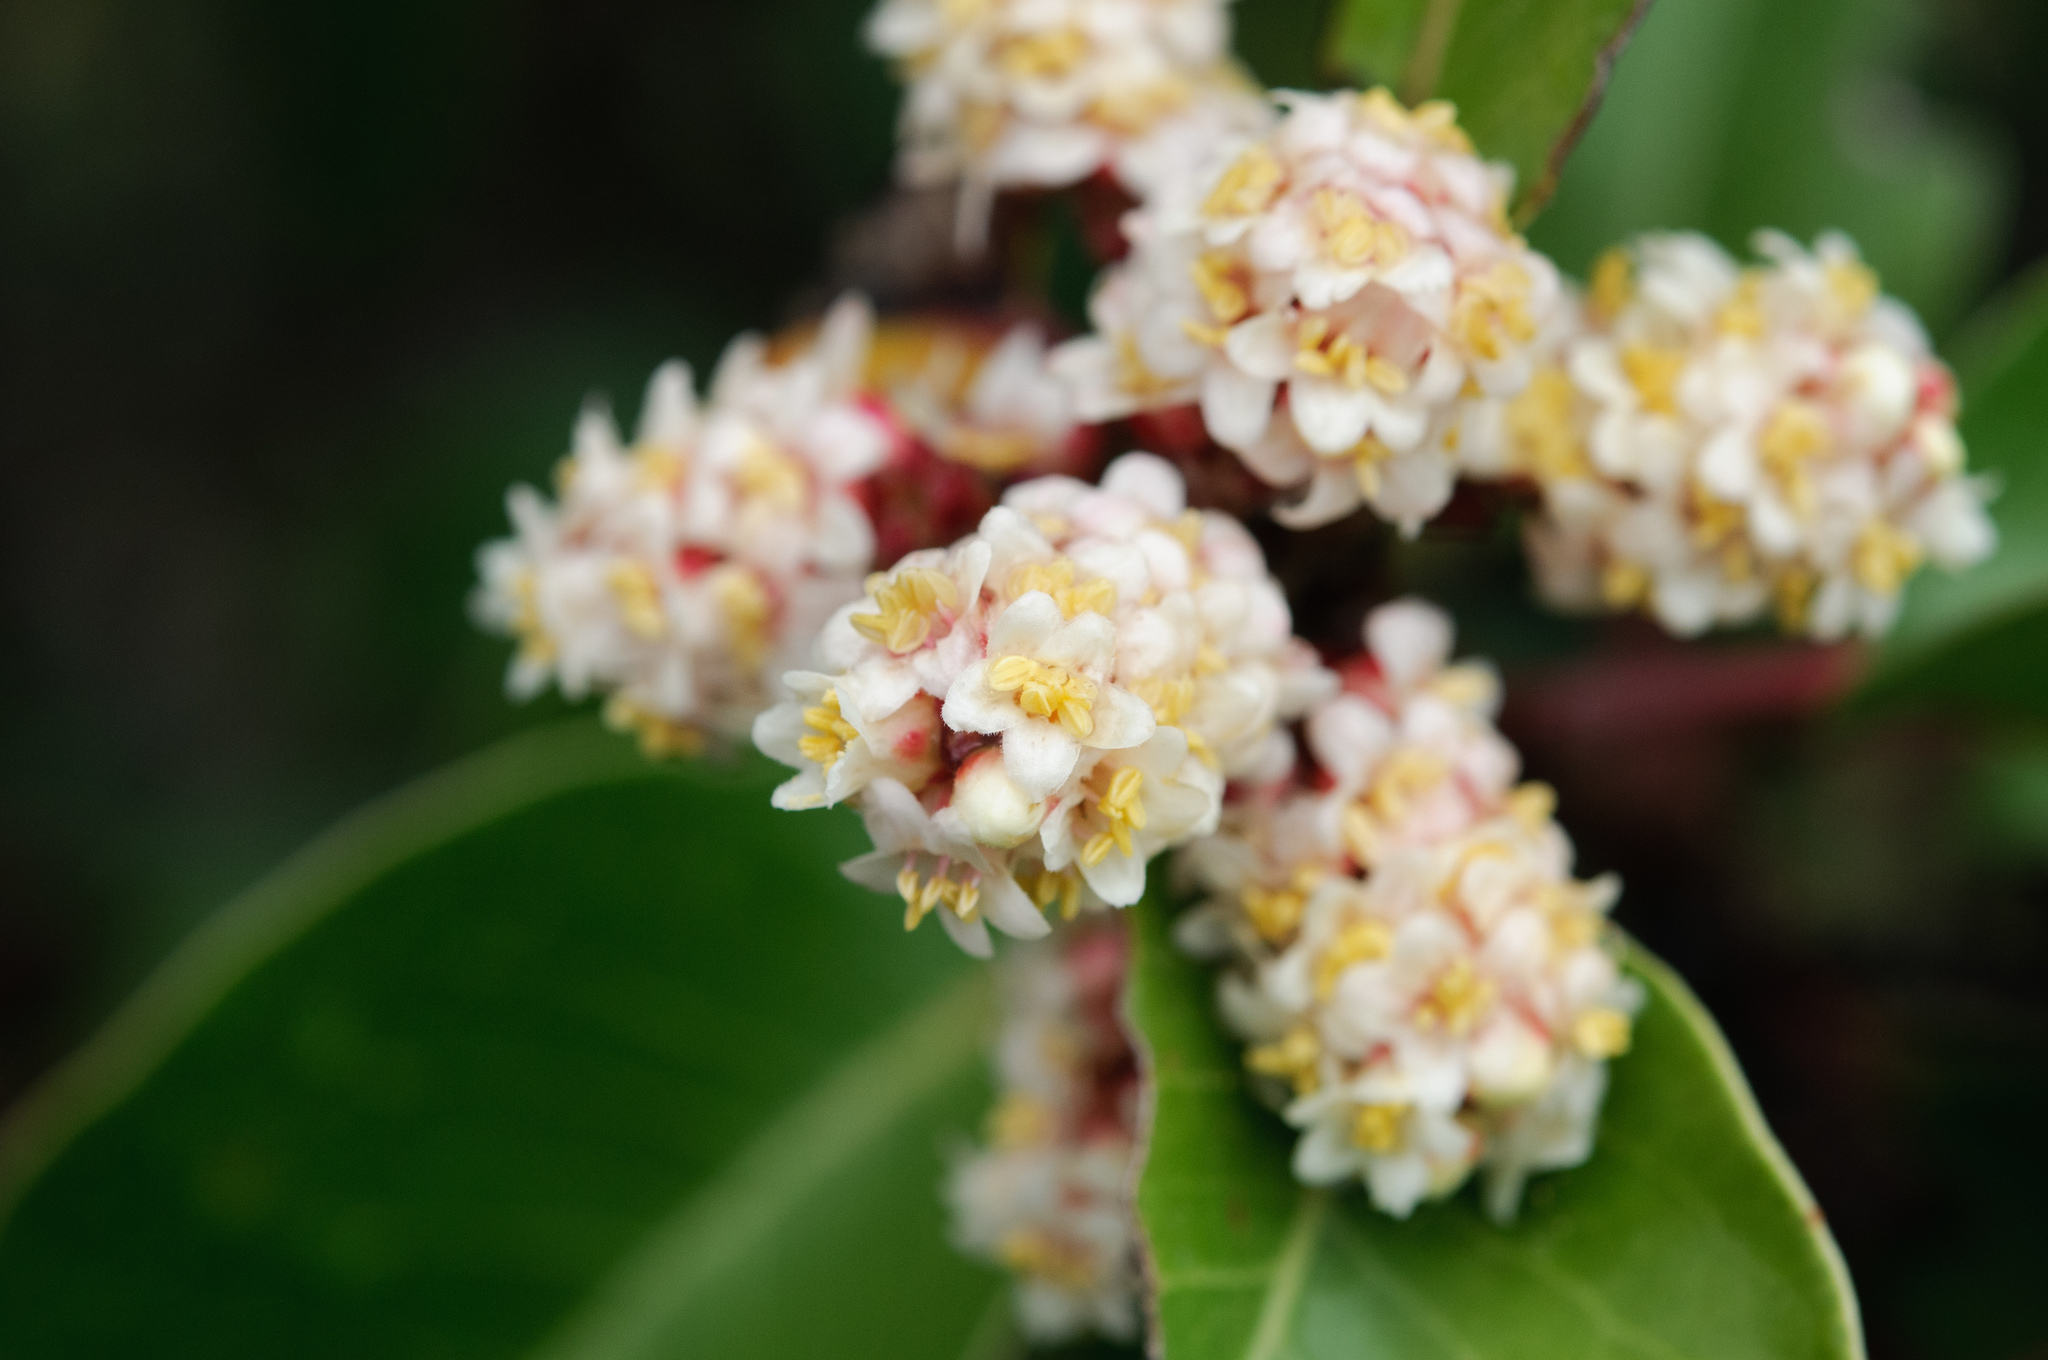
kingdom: Plantae
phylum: Tracheophyta
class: Magnoliopsida
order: Sapindales
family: Anacardiaceae
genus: Rhus
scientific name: Rhus ovata
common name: Sugar sumac
